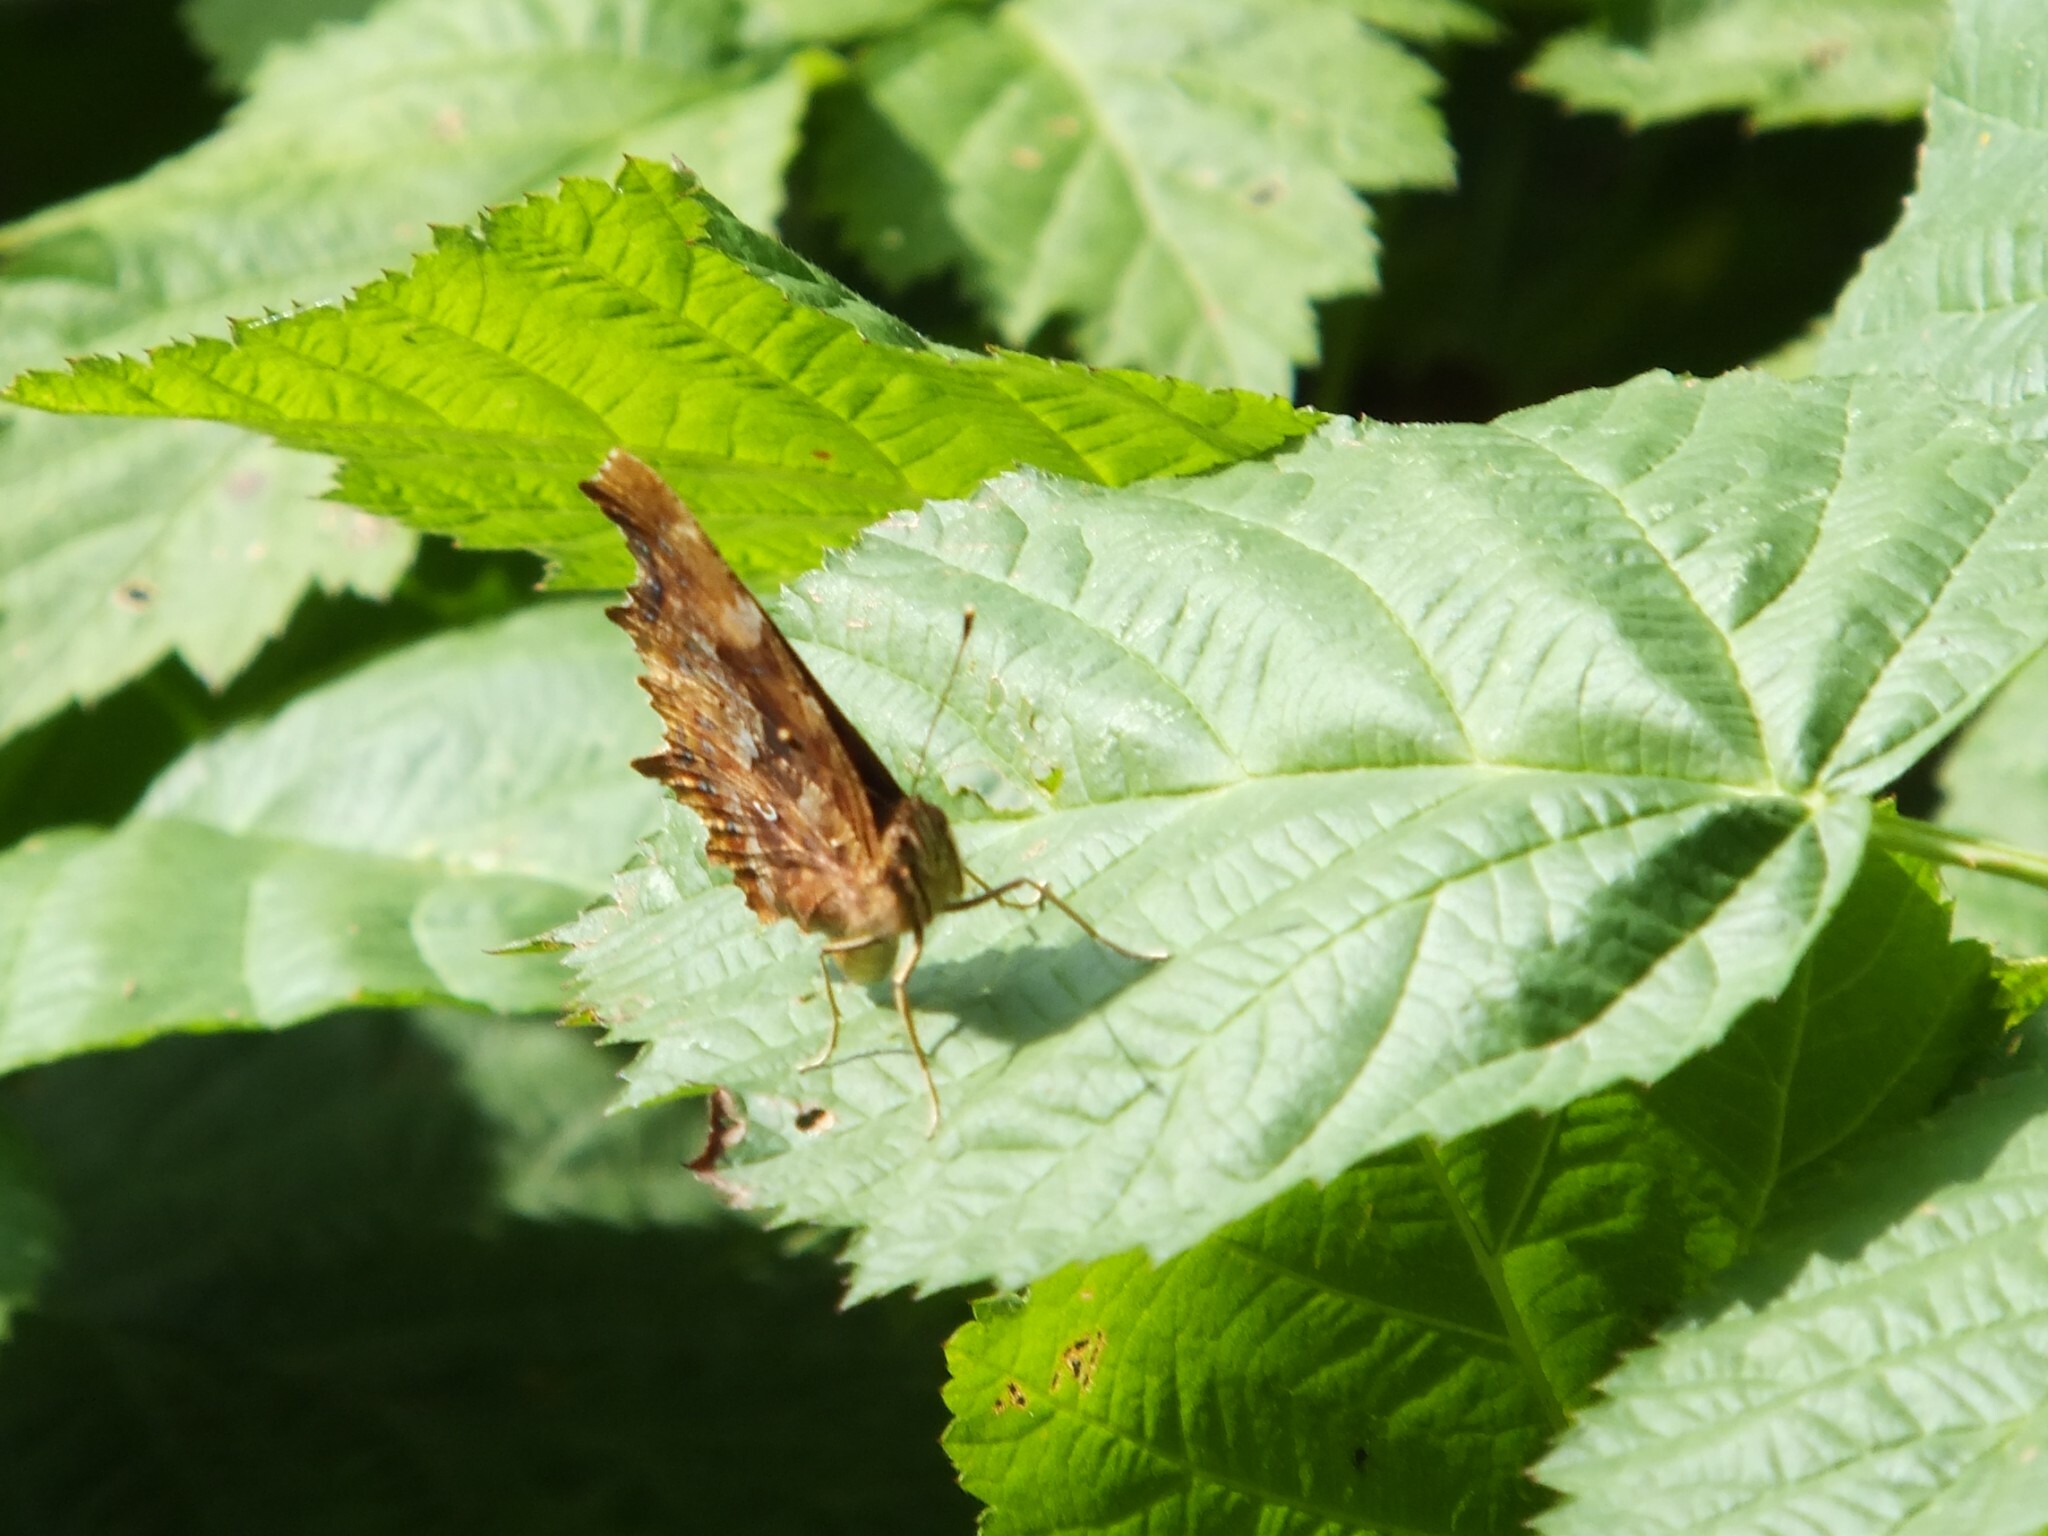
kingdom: Animalia
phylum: Arthropoda
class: Insecta
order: Lepidoptera
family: Nymphalidae
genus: Polygonia
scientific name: Polygonia c-album
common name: Comma
